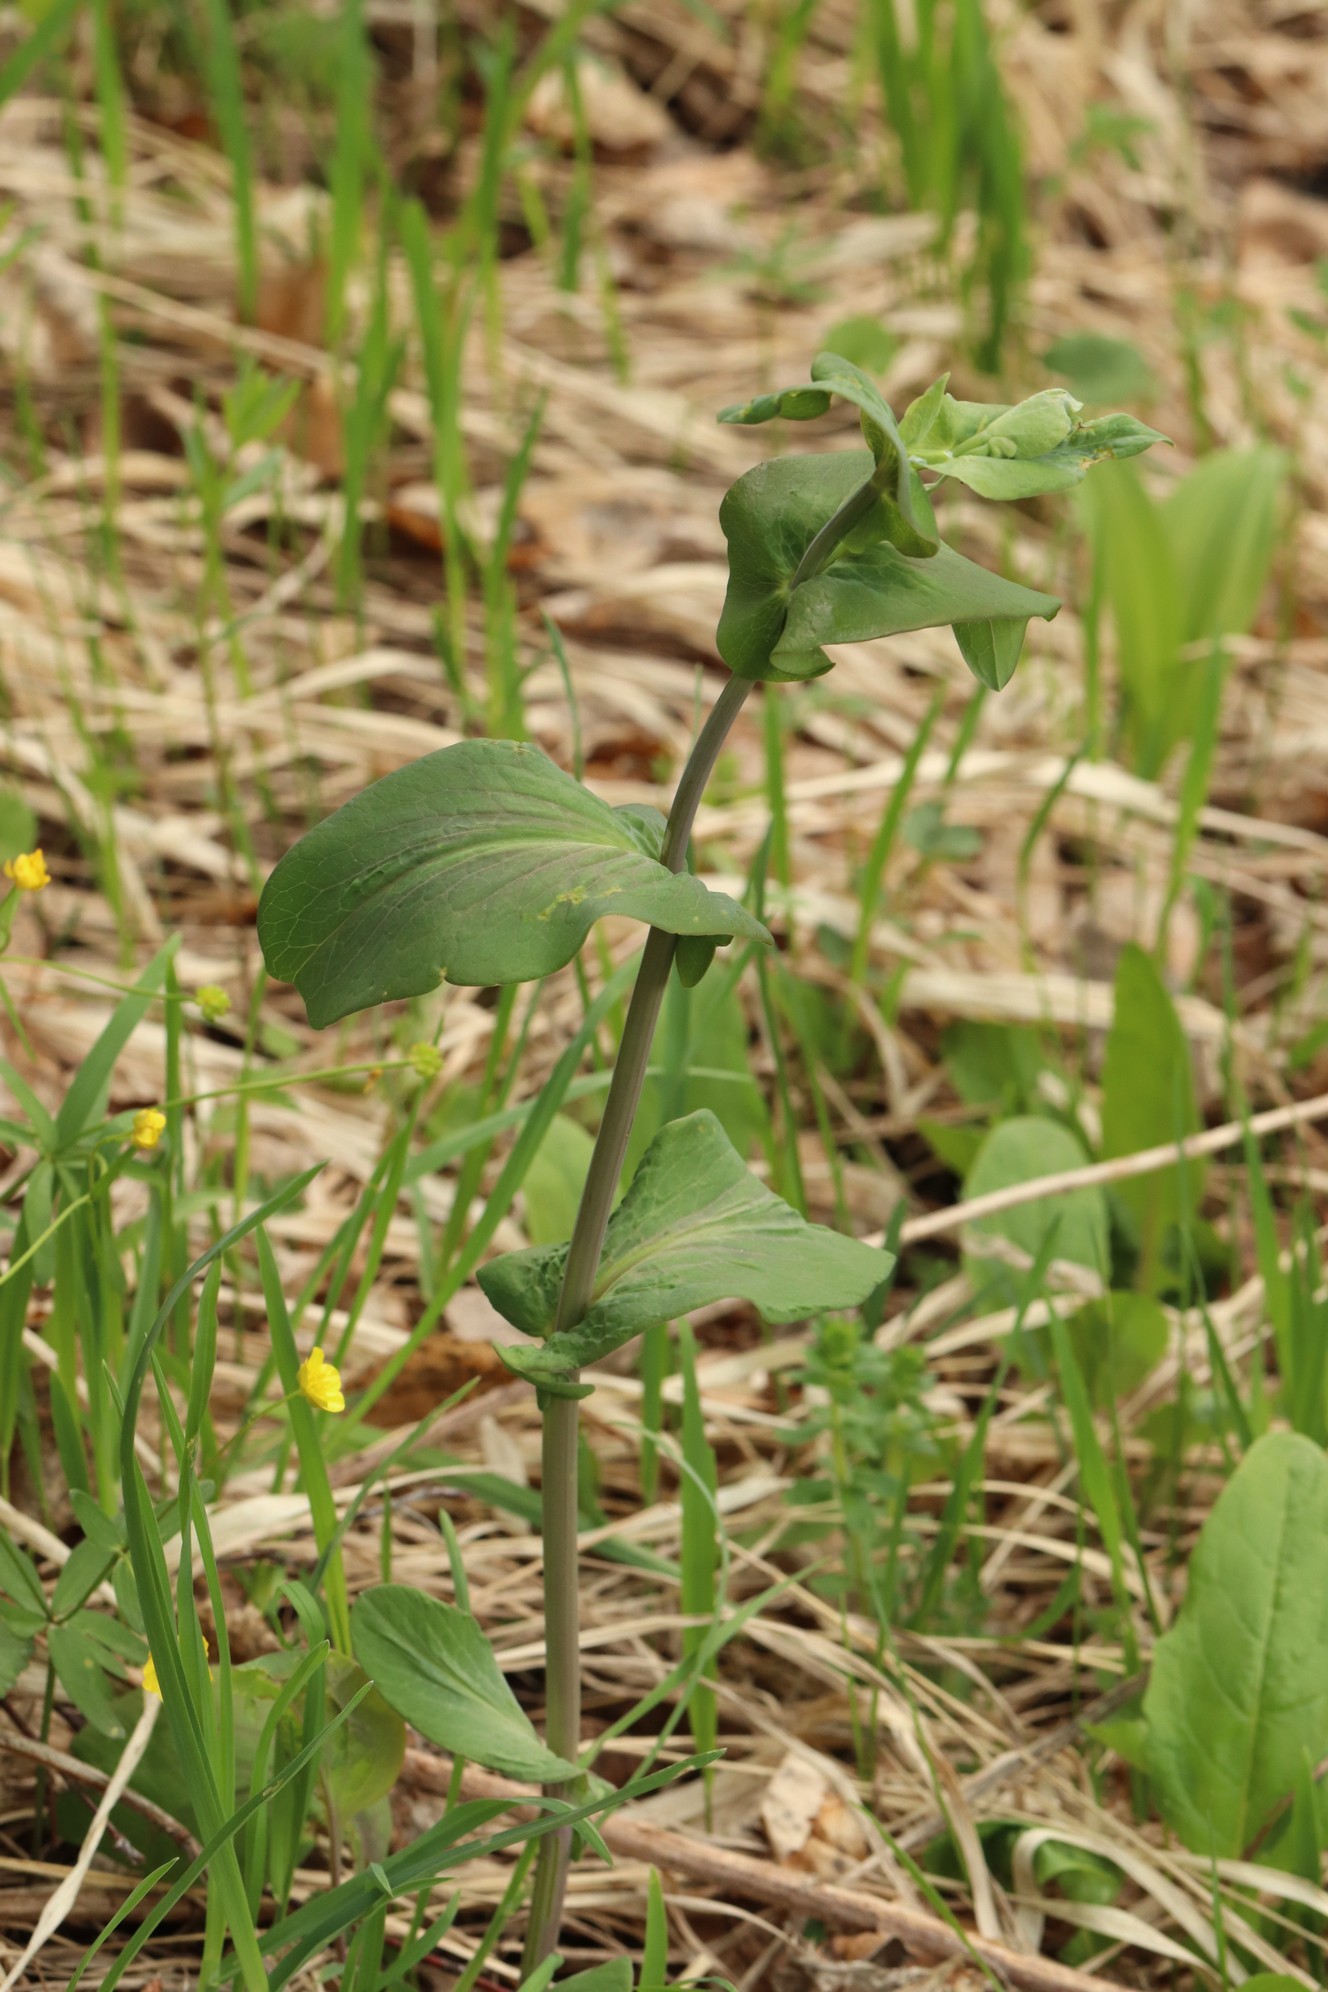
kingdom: Plantae
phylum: Tracheophyta
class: Magnoliopsida
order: Apiales
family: Apiaceae
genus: Bupleurum
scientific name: Bupleurum aureum
